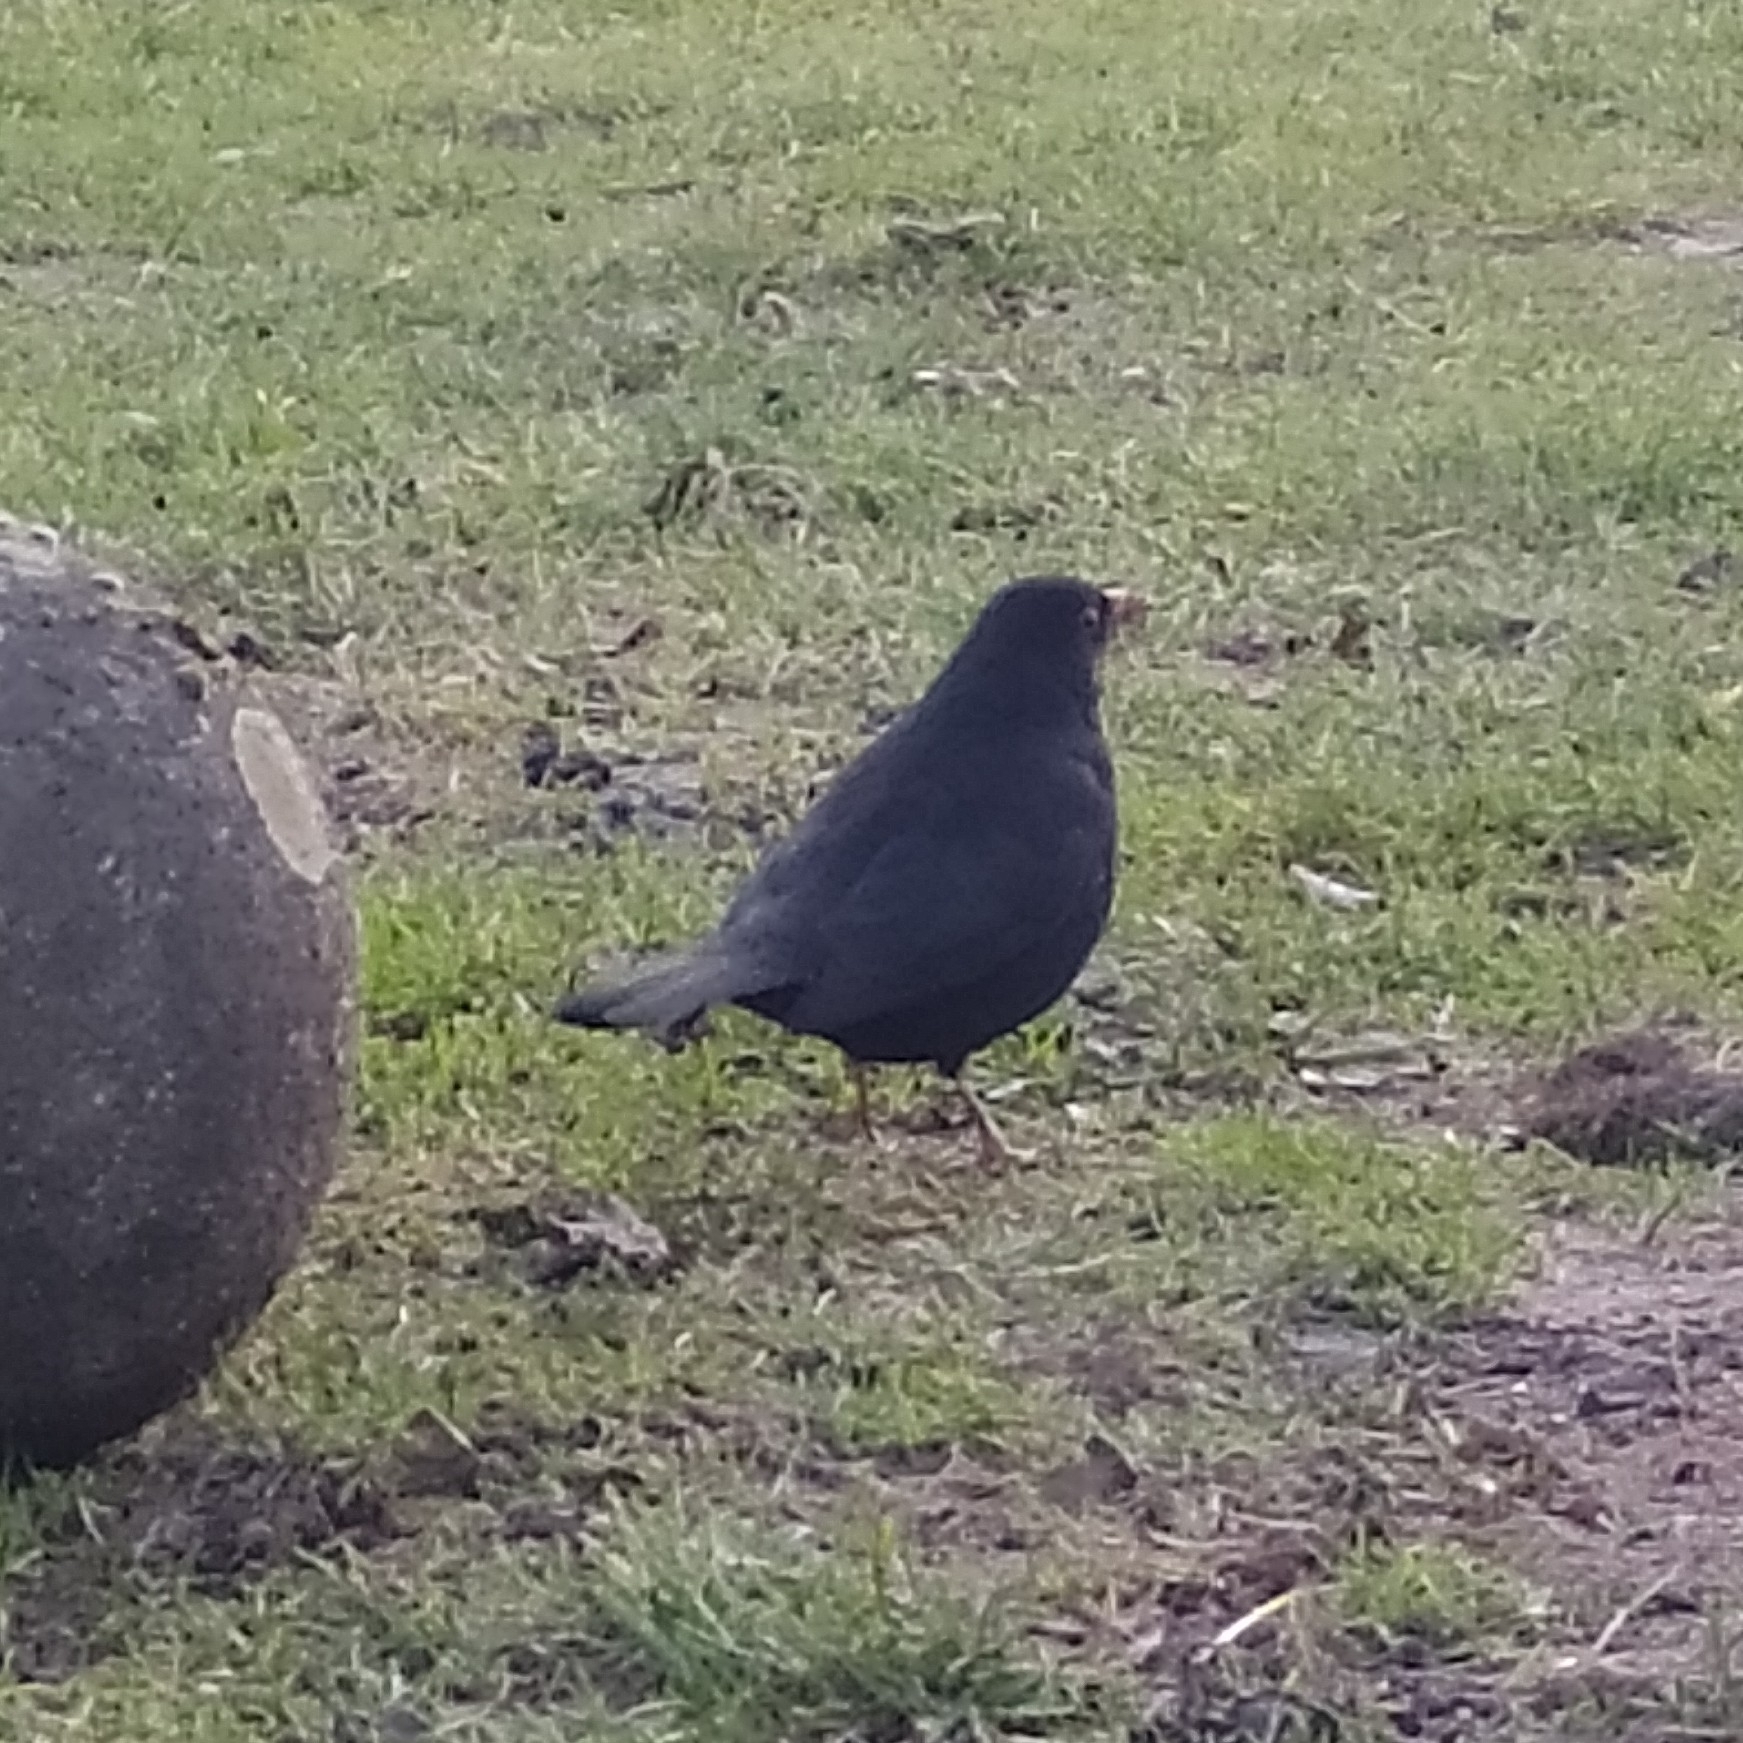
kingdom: Animalia
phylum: Chordata
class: Aves
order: Passeriformes
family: Turdidae
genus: Turdus
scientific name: Turdus merula
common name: Common blackbird
